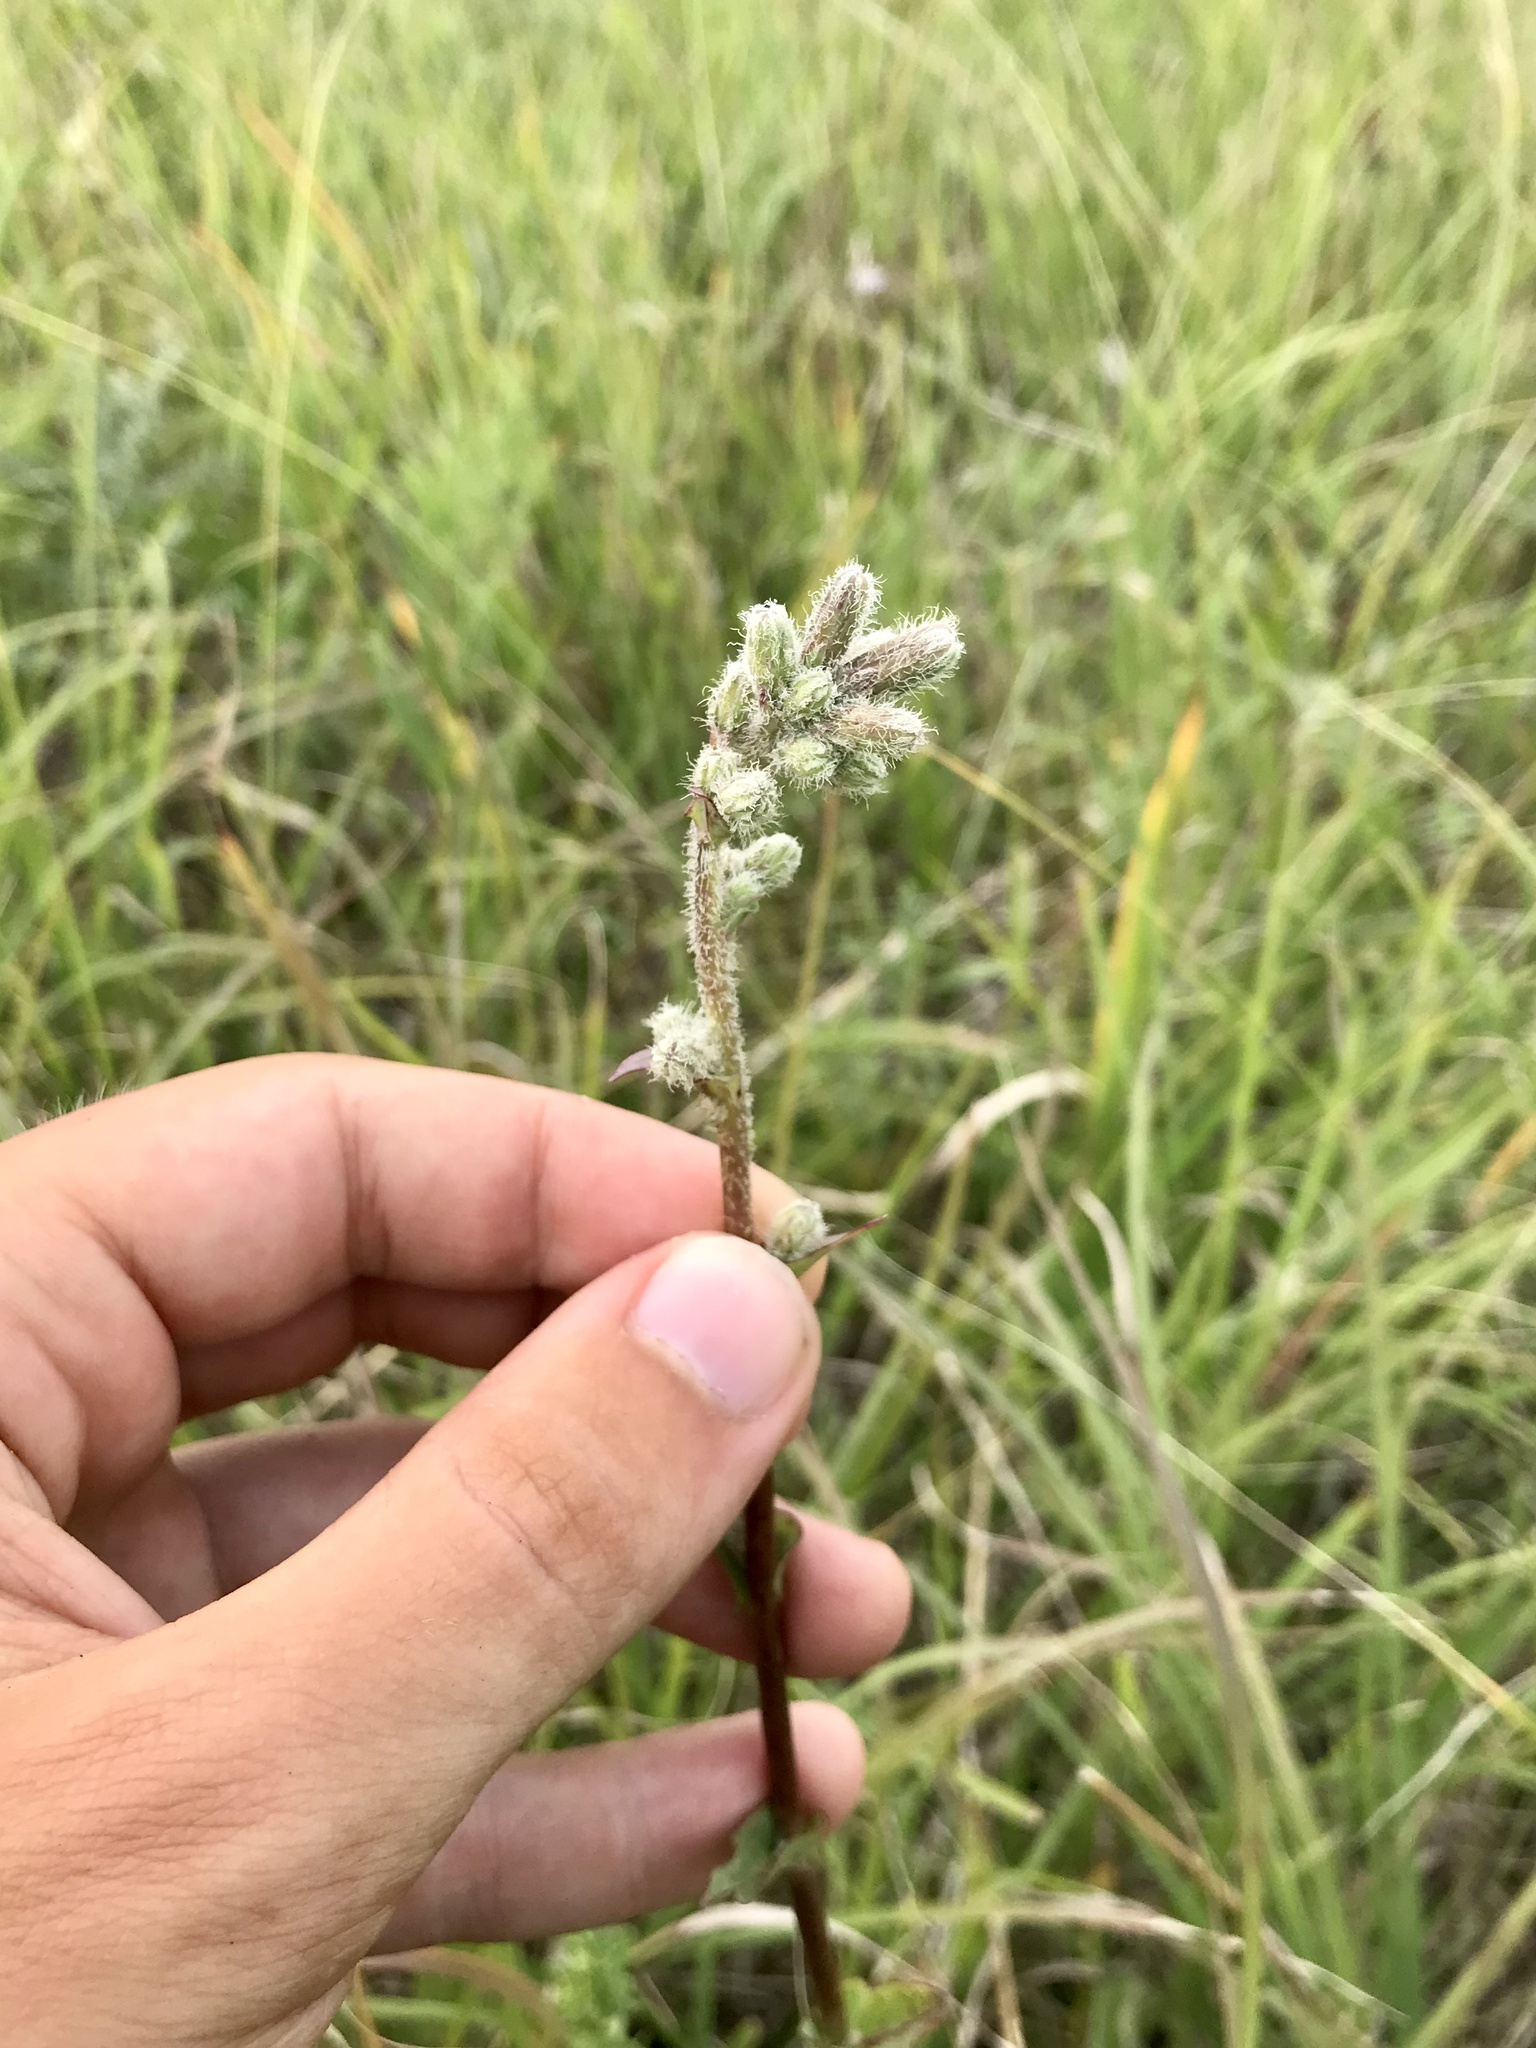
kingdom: Plantae
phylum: Tracheophyta
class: Magnoliopsida
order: Asterales
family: Asteraceae
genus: Nabalus
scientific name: Nabalus racemosus
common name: Glaucous white lettuce
